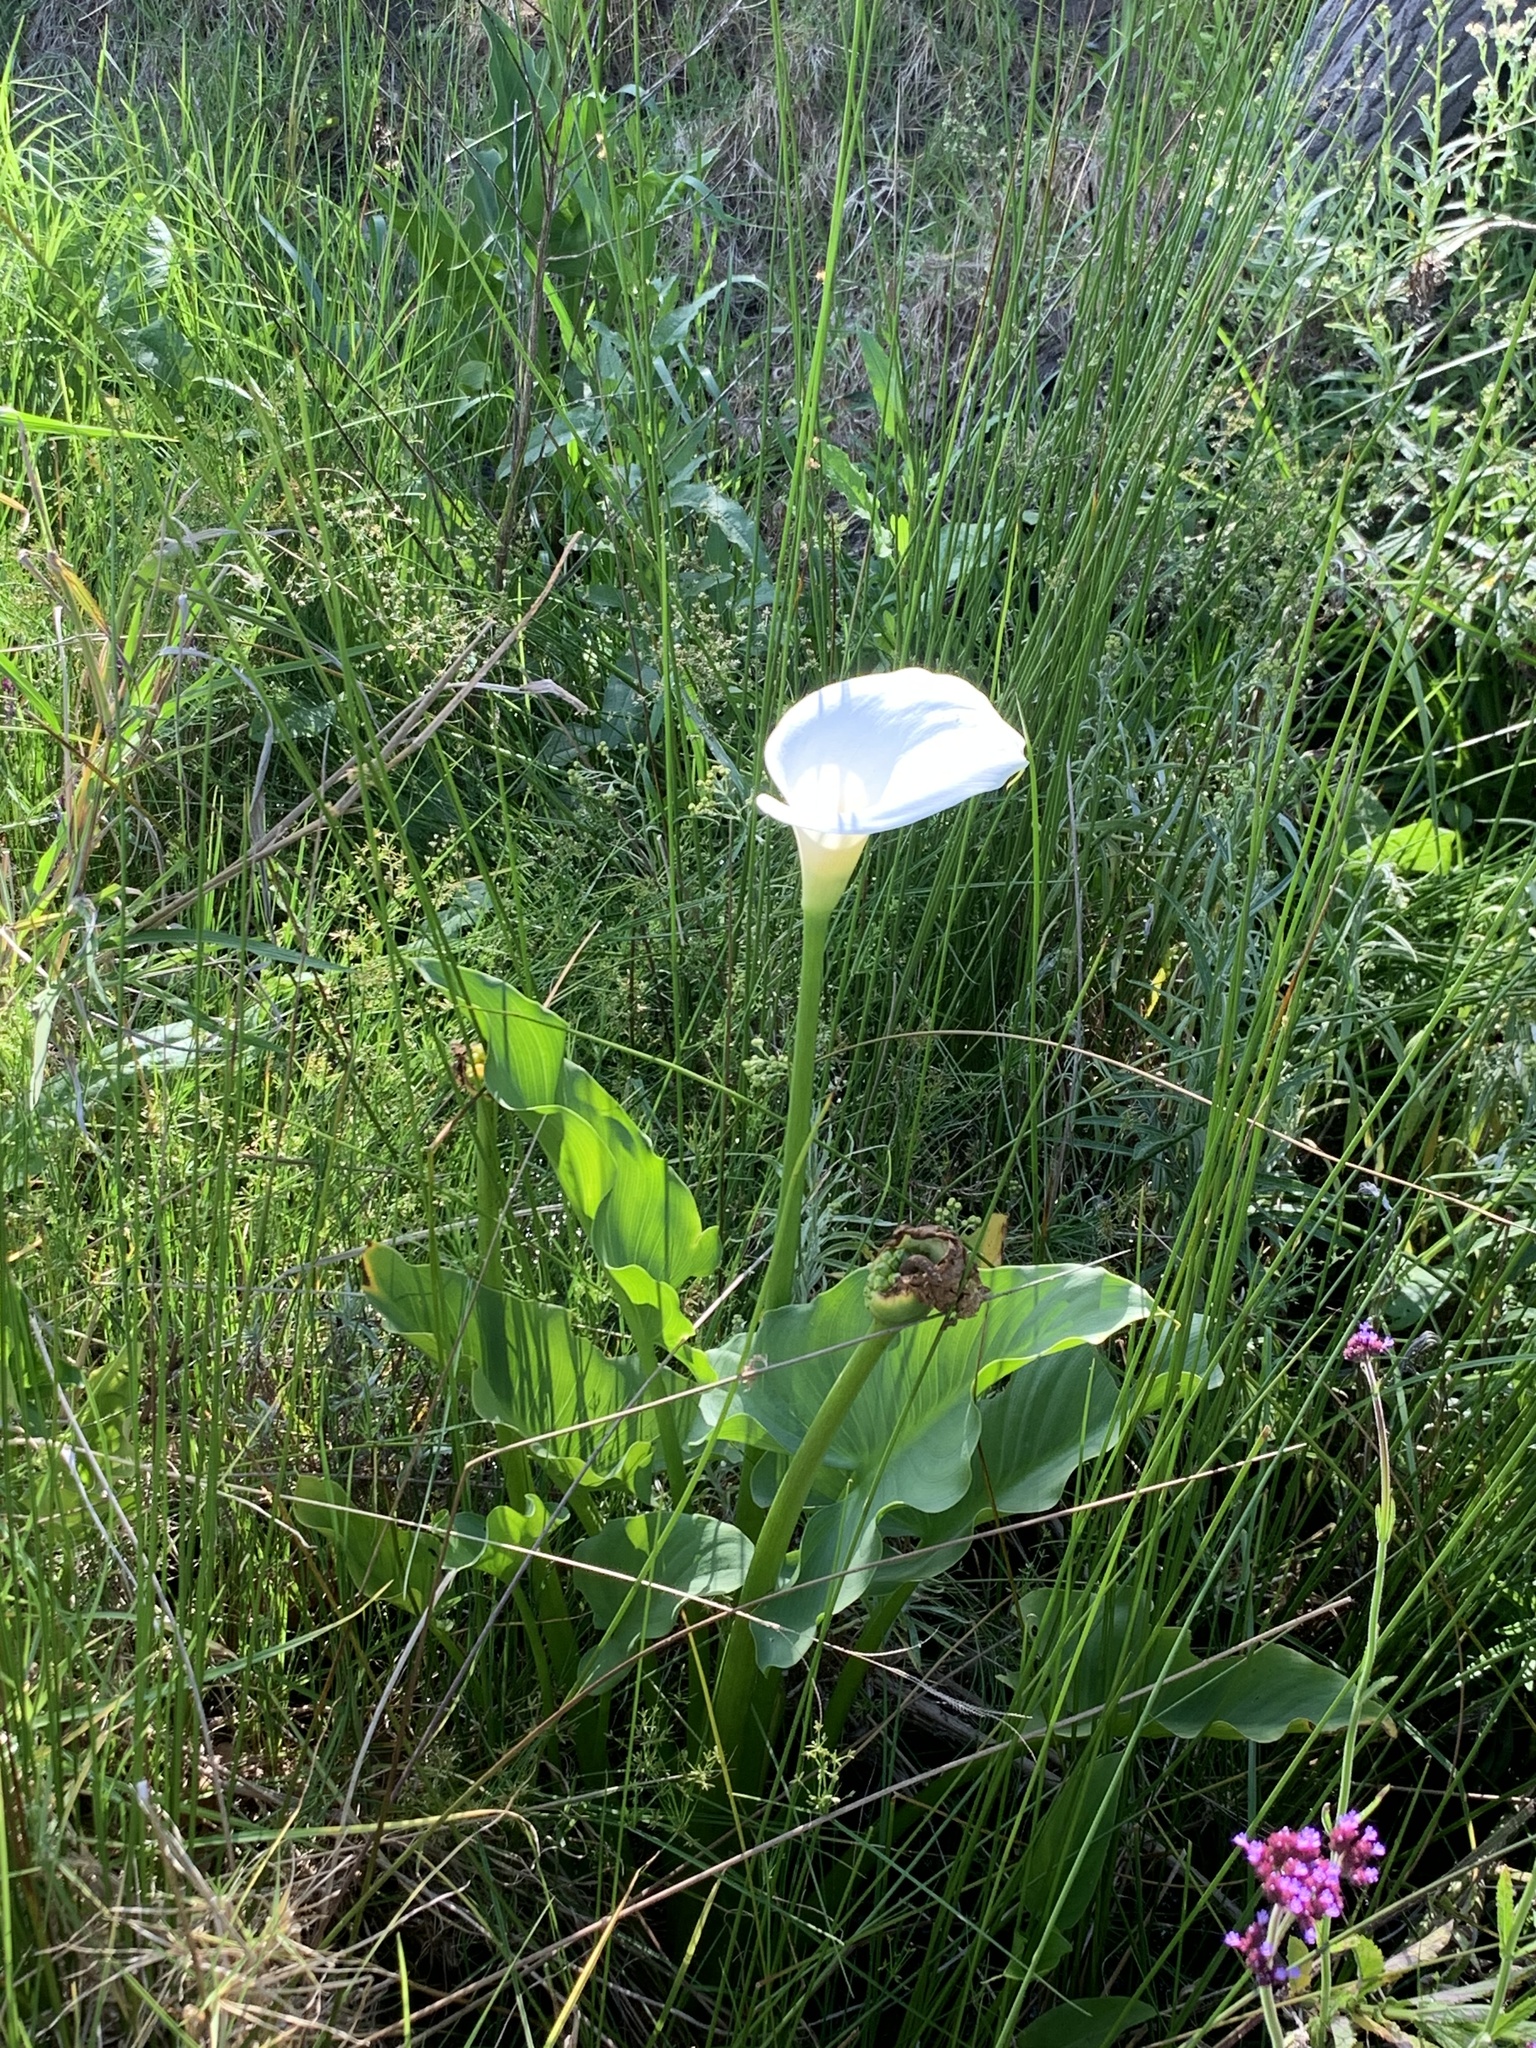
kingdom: Plantae
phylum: Tracheophyta
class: Liliopsida
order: Alismatales
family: Araceae
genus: Zantedeschia
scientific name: Zantedeschia aethiopica
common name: Altar-lily
